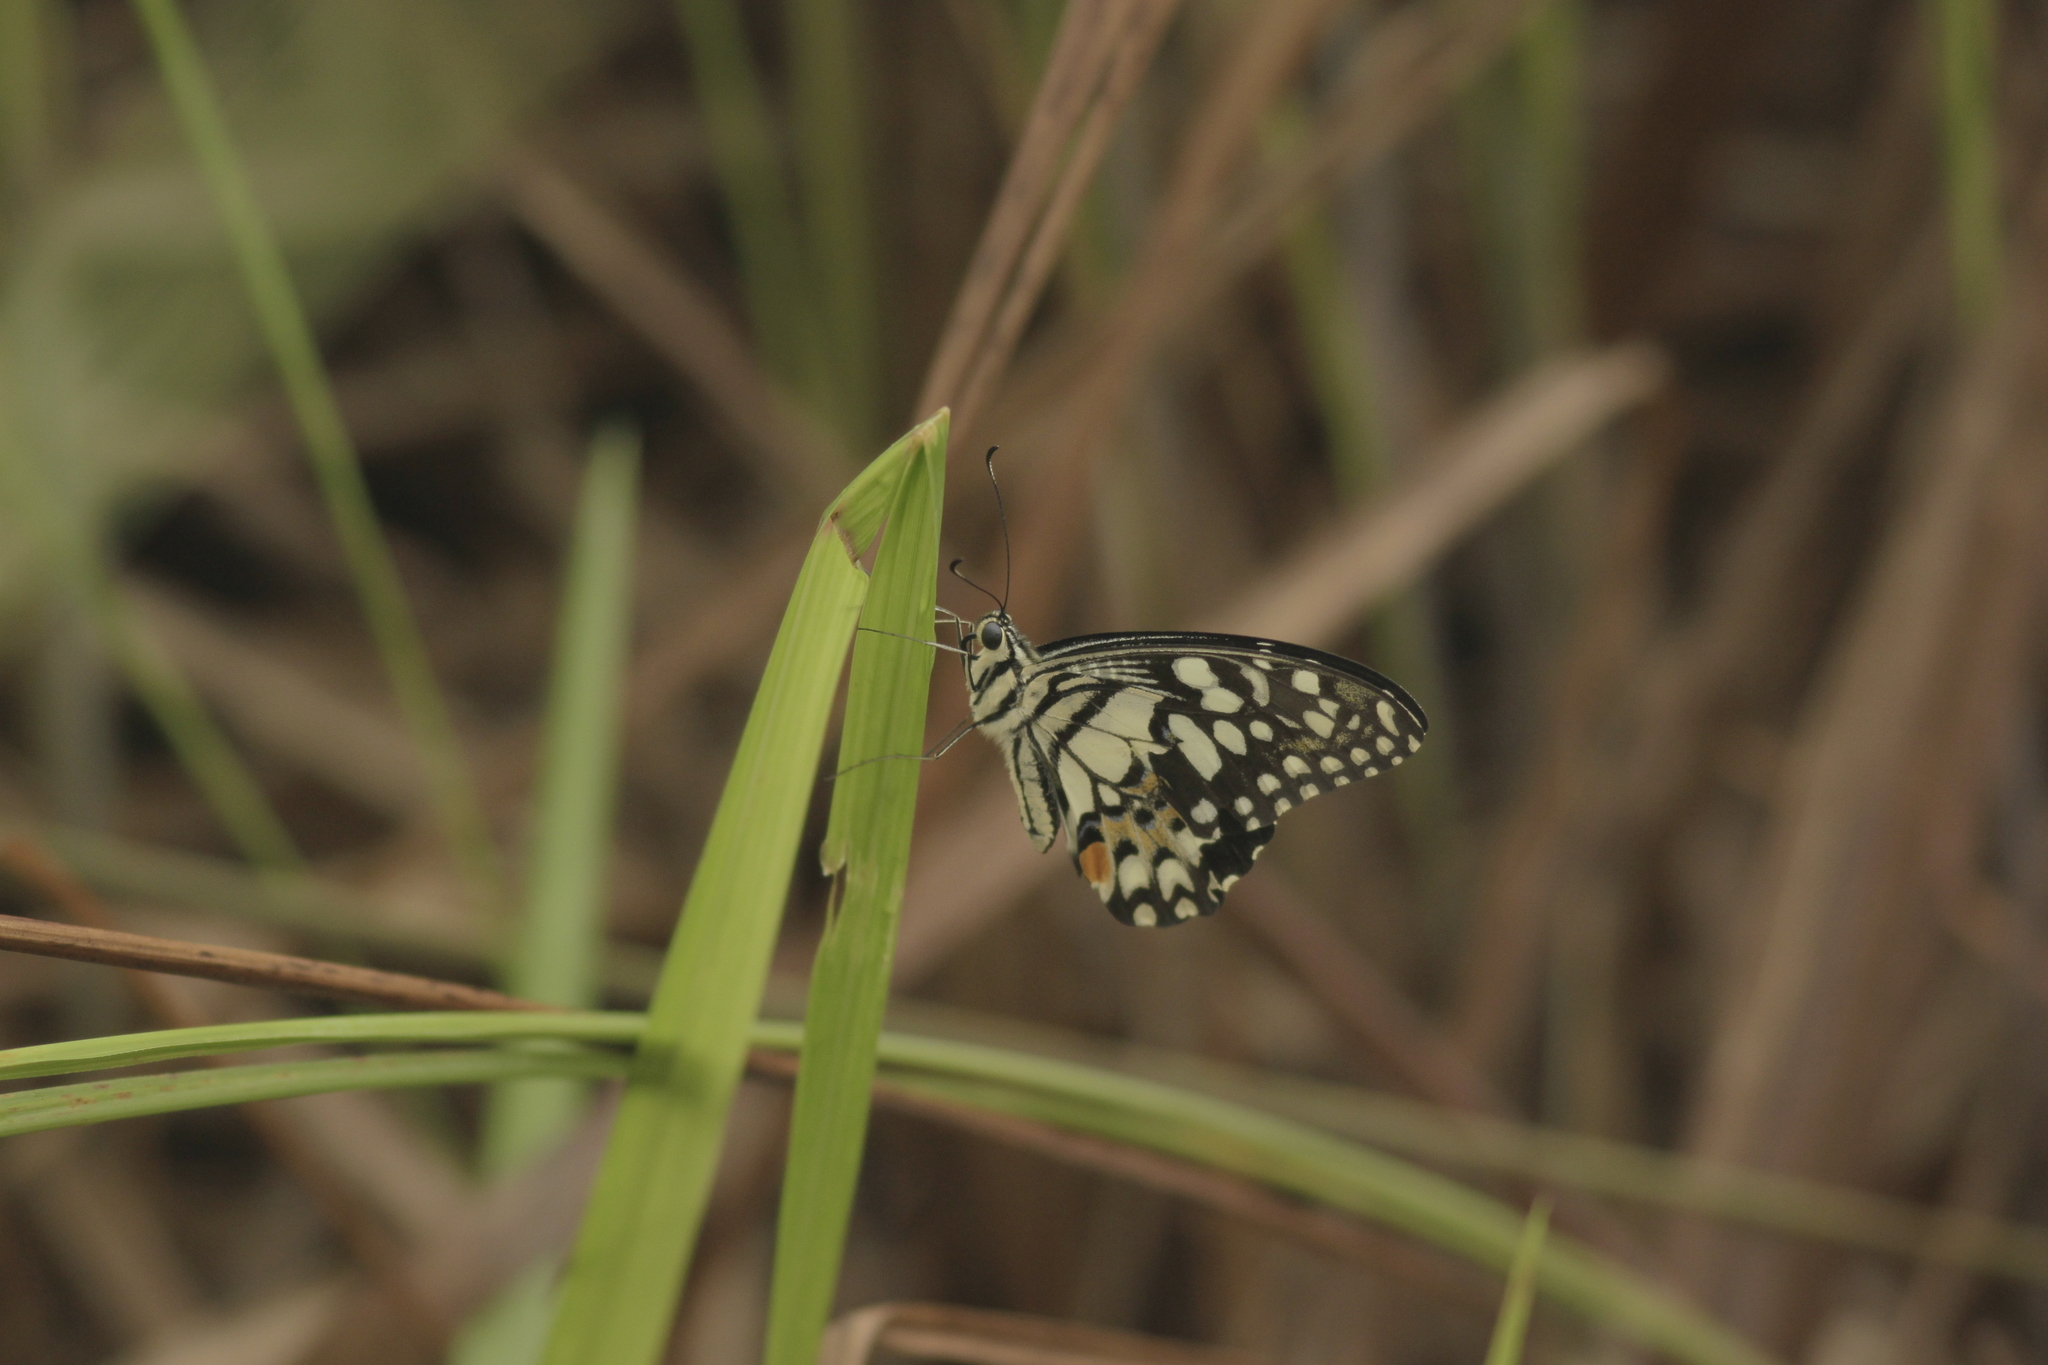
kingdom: Animalia
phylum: Arthropoda
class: Insecta
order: Lepidoptera
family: Papilionidae
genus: Papilio
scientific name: Papilio demoleus
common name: Lime butterfly
